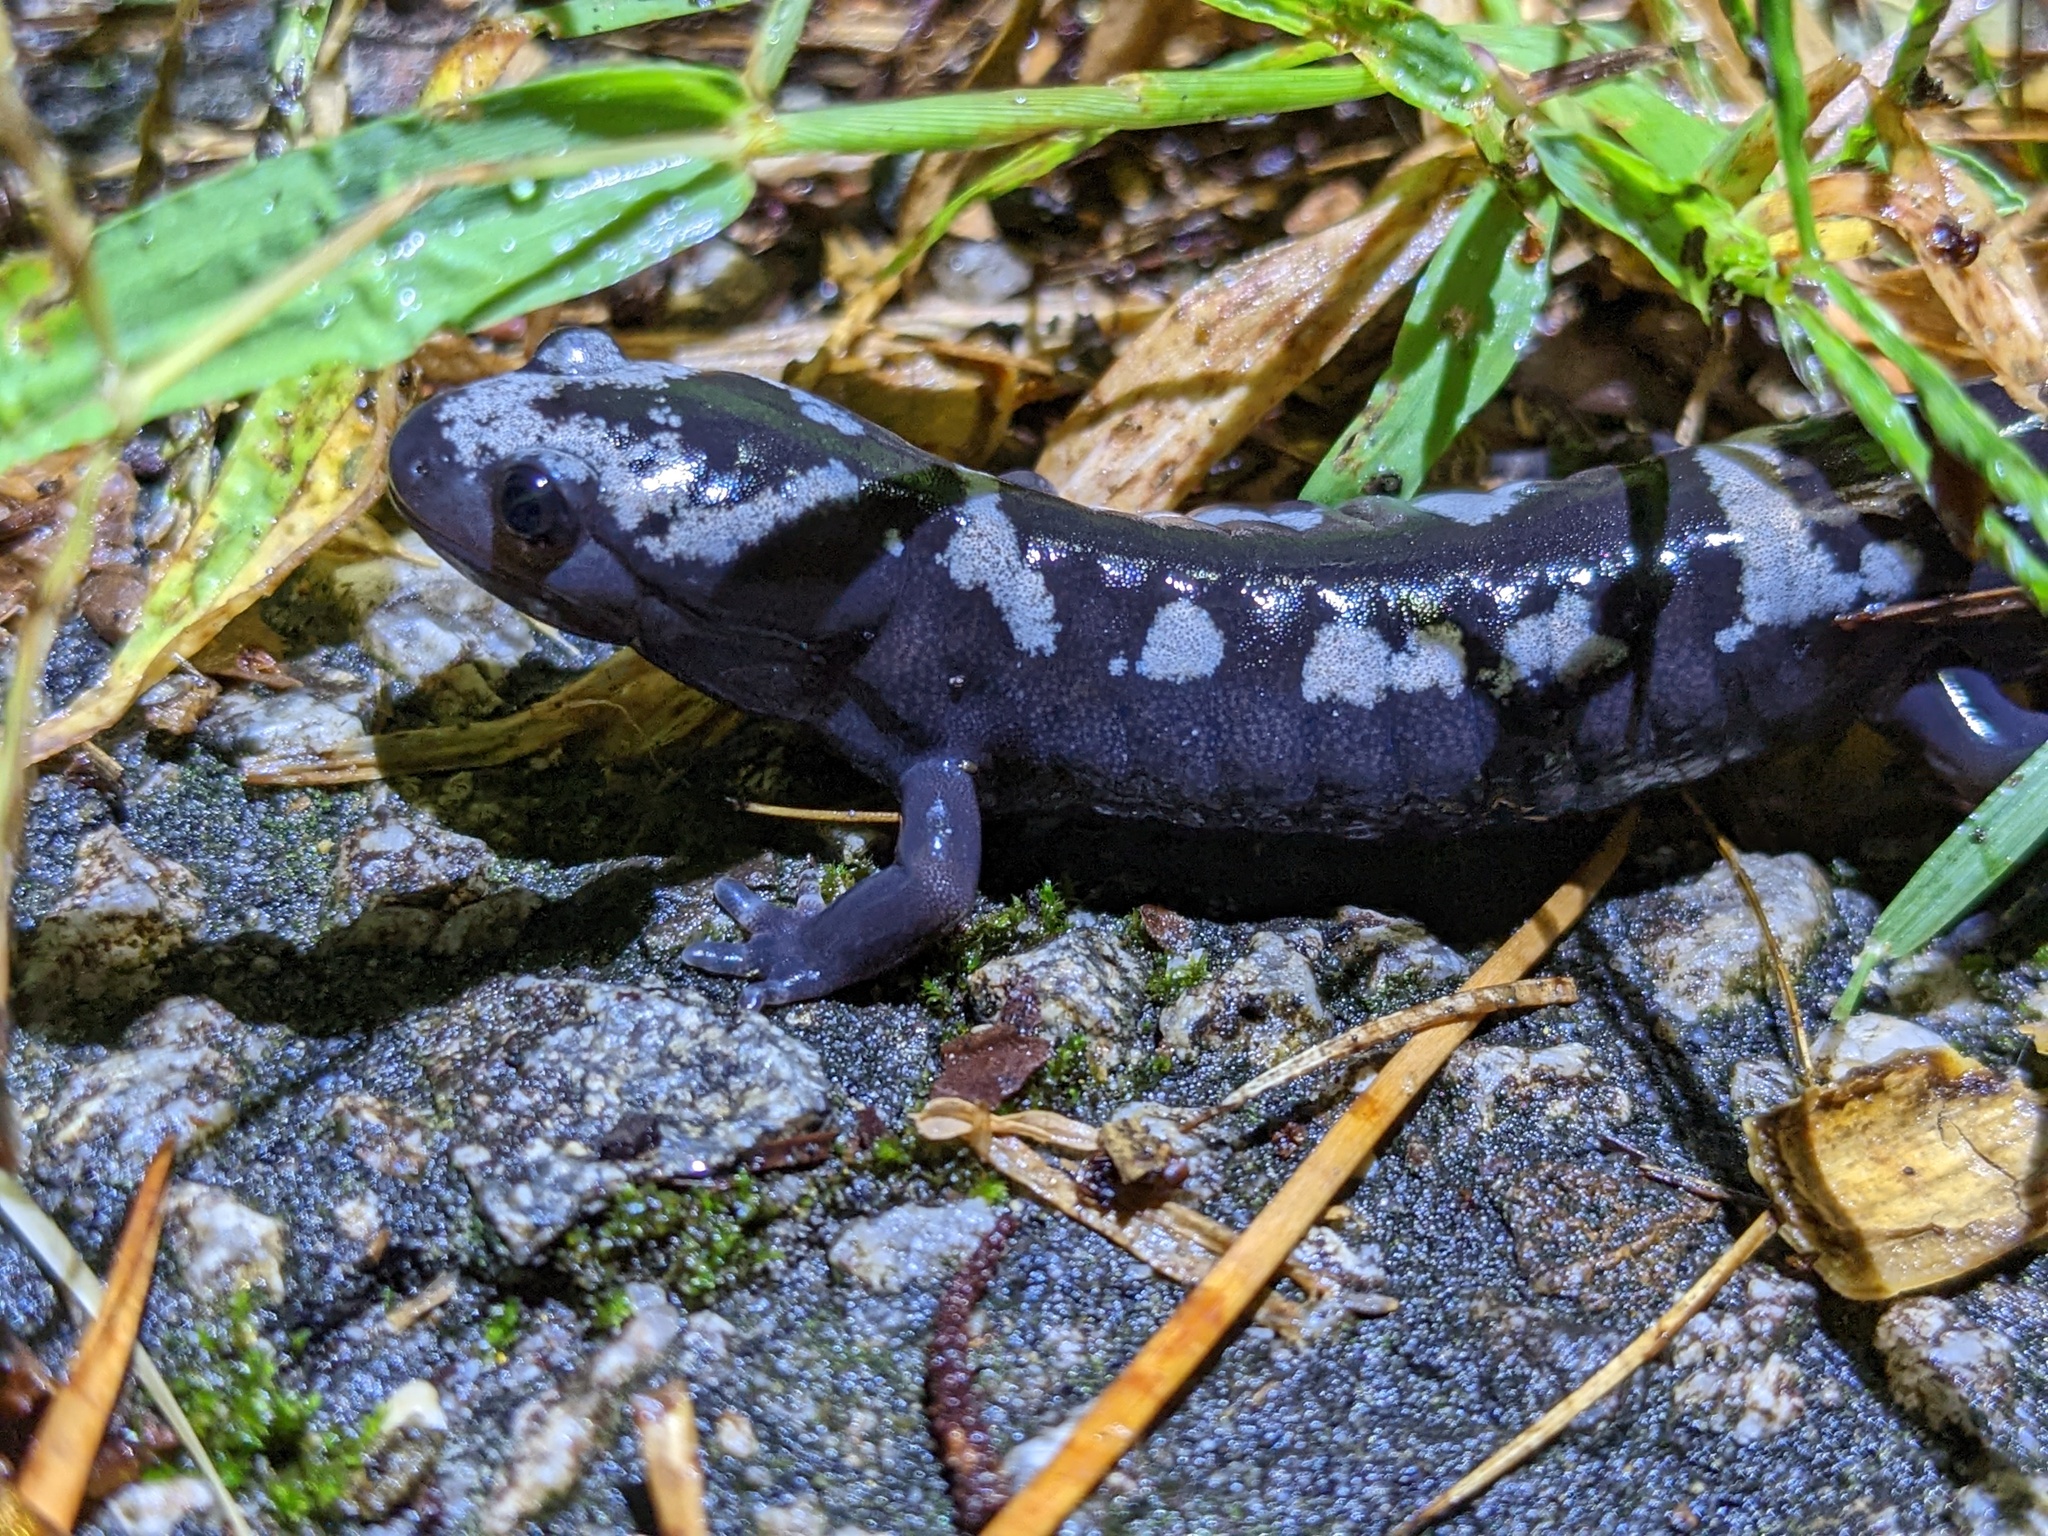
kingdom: Animalia
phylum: Chordata
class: Amphibia
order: Caudata
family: Ambystomatidae
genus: Ambystoma
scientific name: Ambystoma opacum
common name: Marbled salamander
